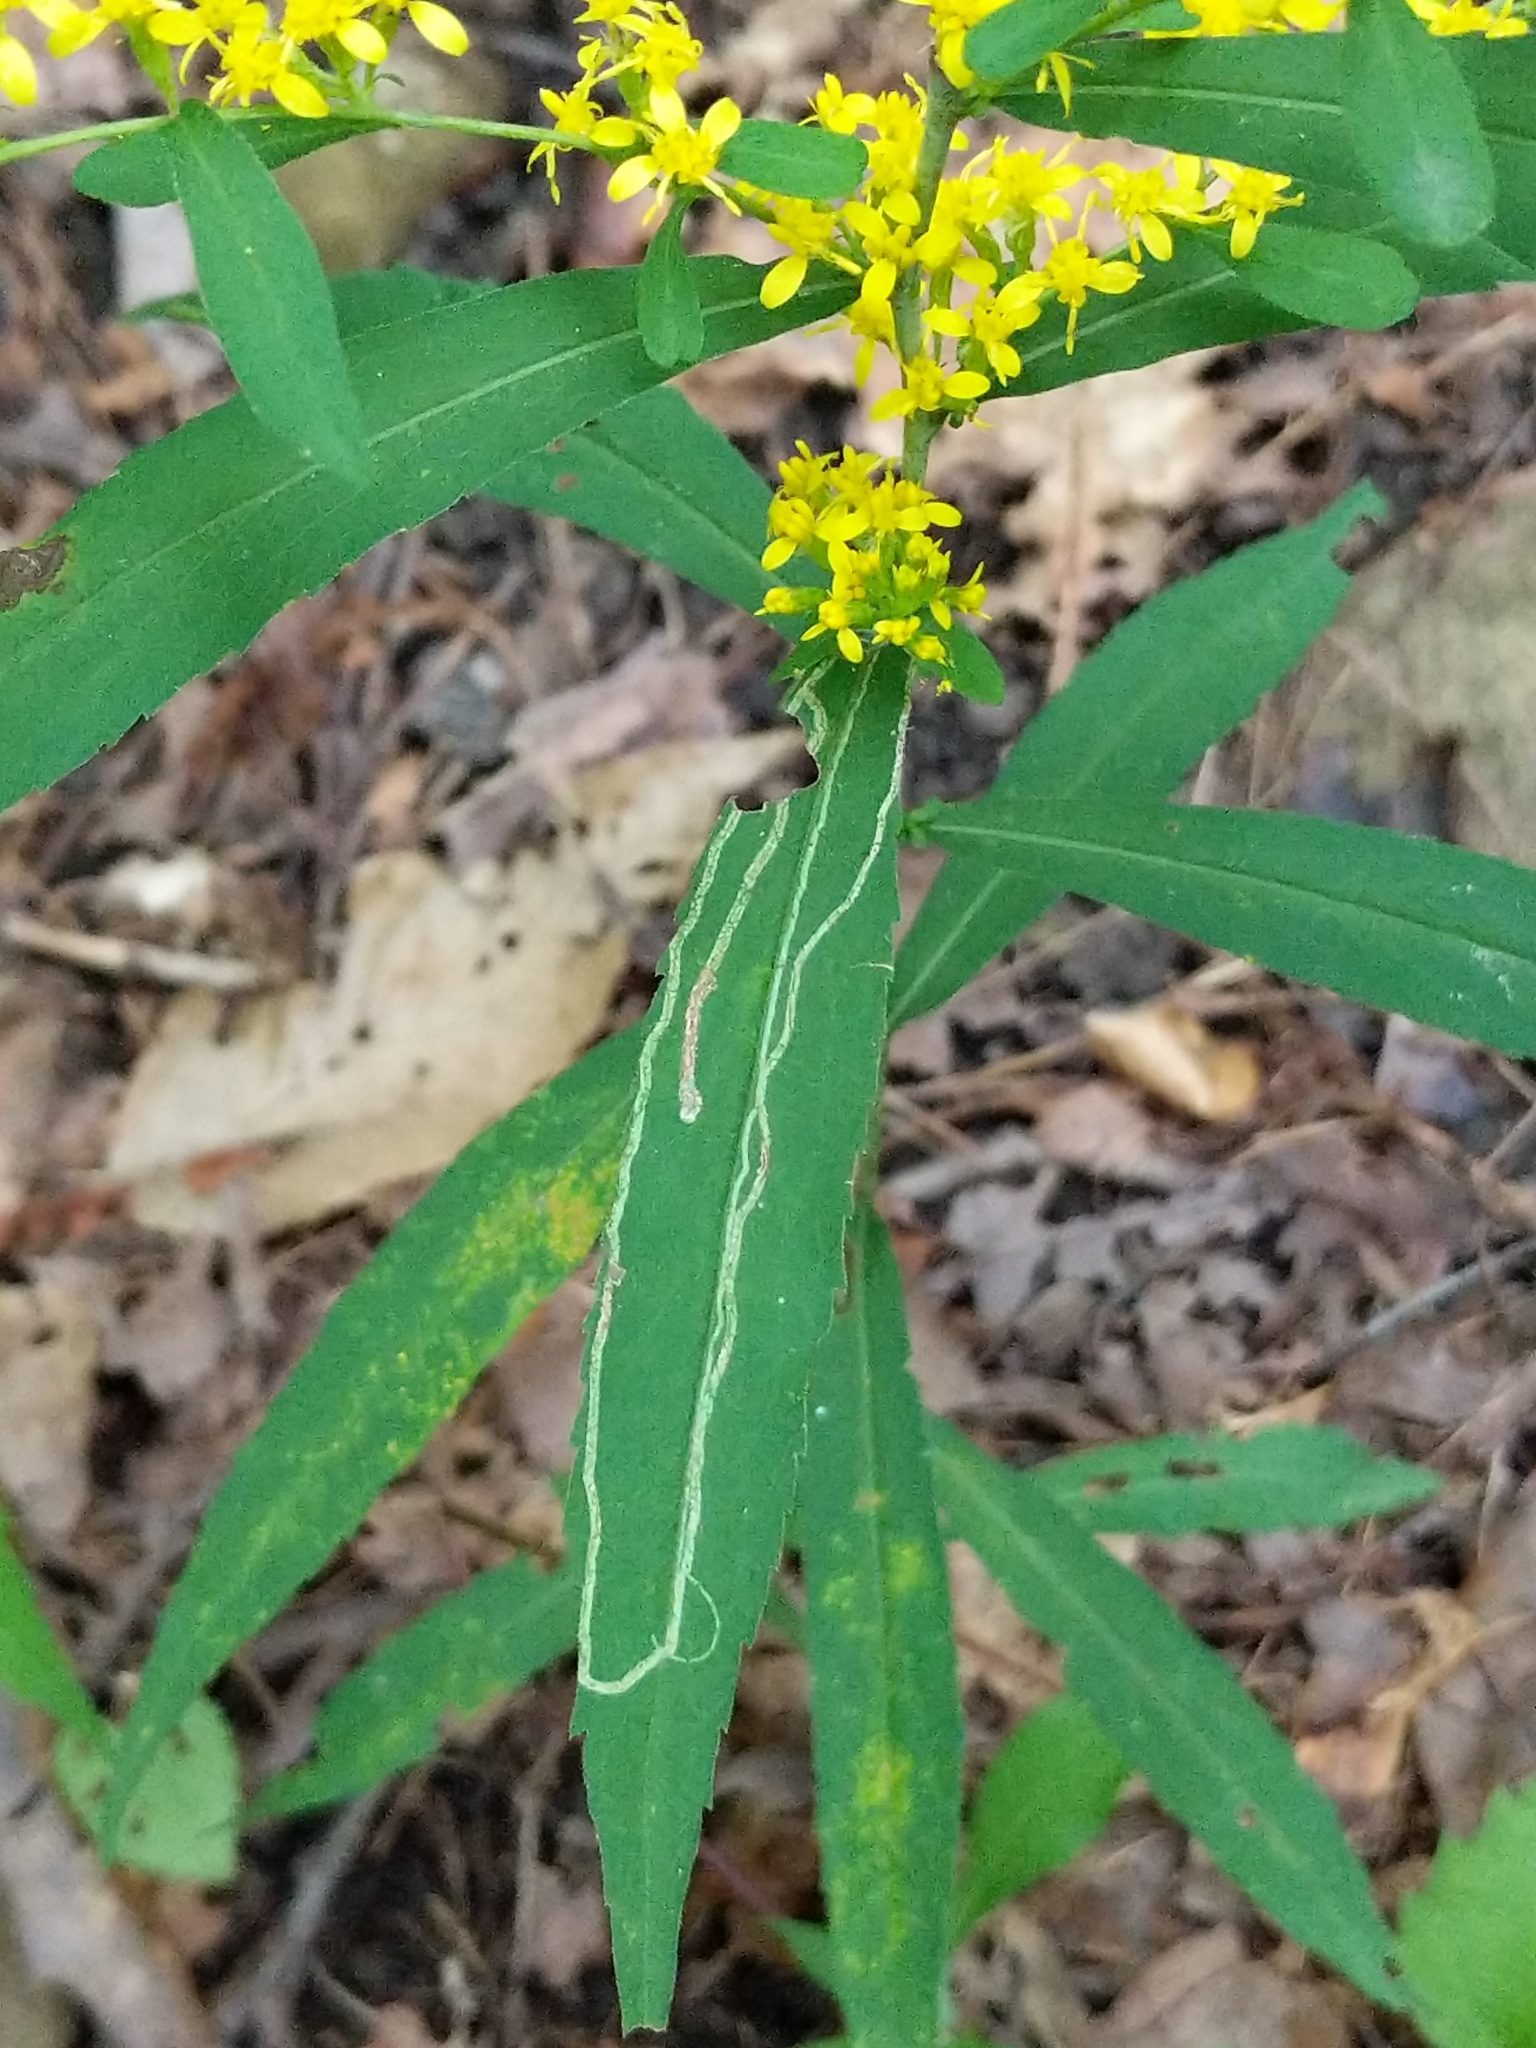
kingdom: Animalia
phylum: Arthropoda
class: Insecta
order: Diptera
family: Agromyzidae
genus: Ophiomyia
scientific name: Ophiomyia maura
